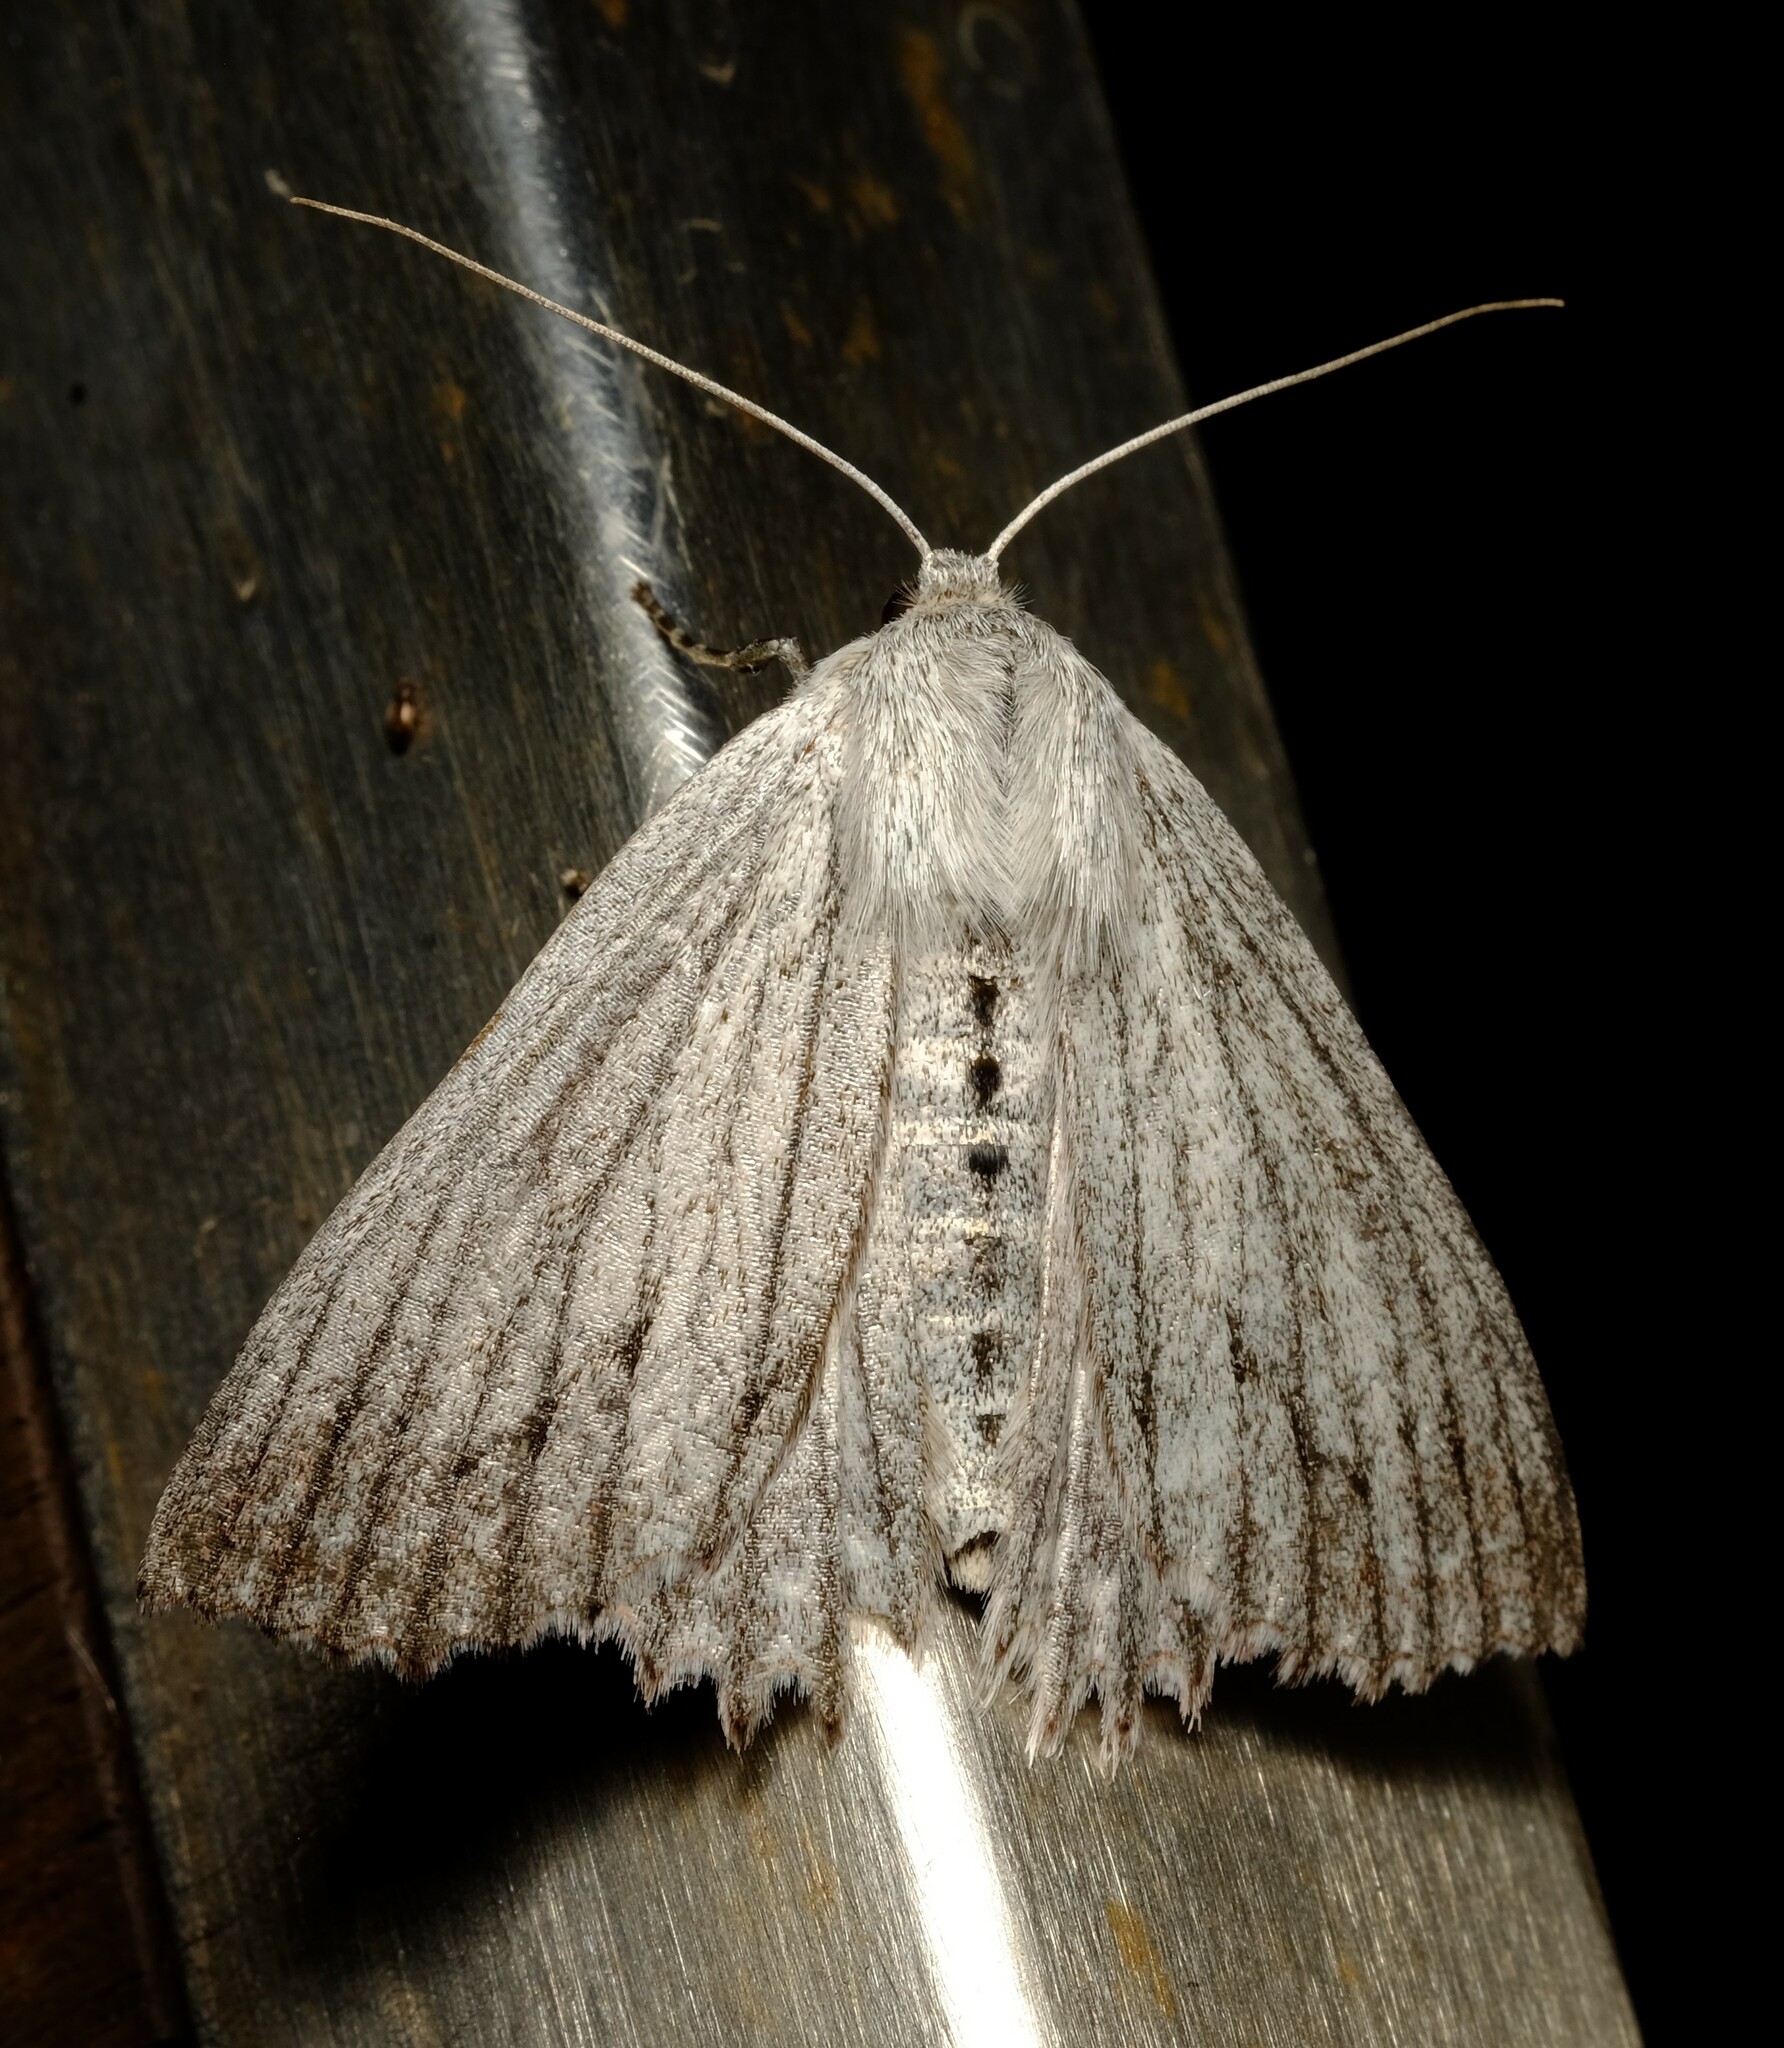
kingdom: Animalia
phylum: Arthropoda
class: Insecta
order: Lepidoptera
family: Geometridae
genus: Paraterpna
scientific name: Paraterpna harrisoni
